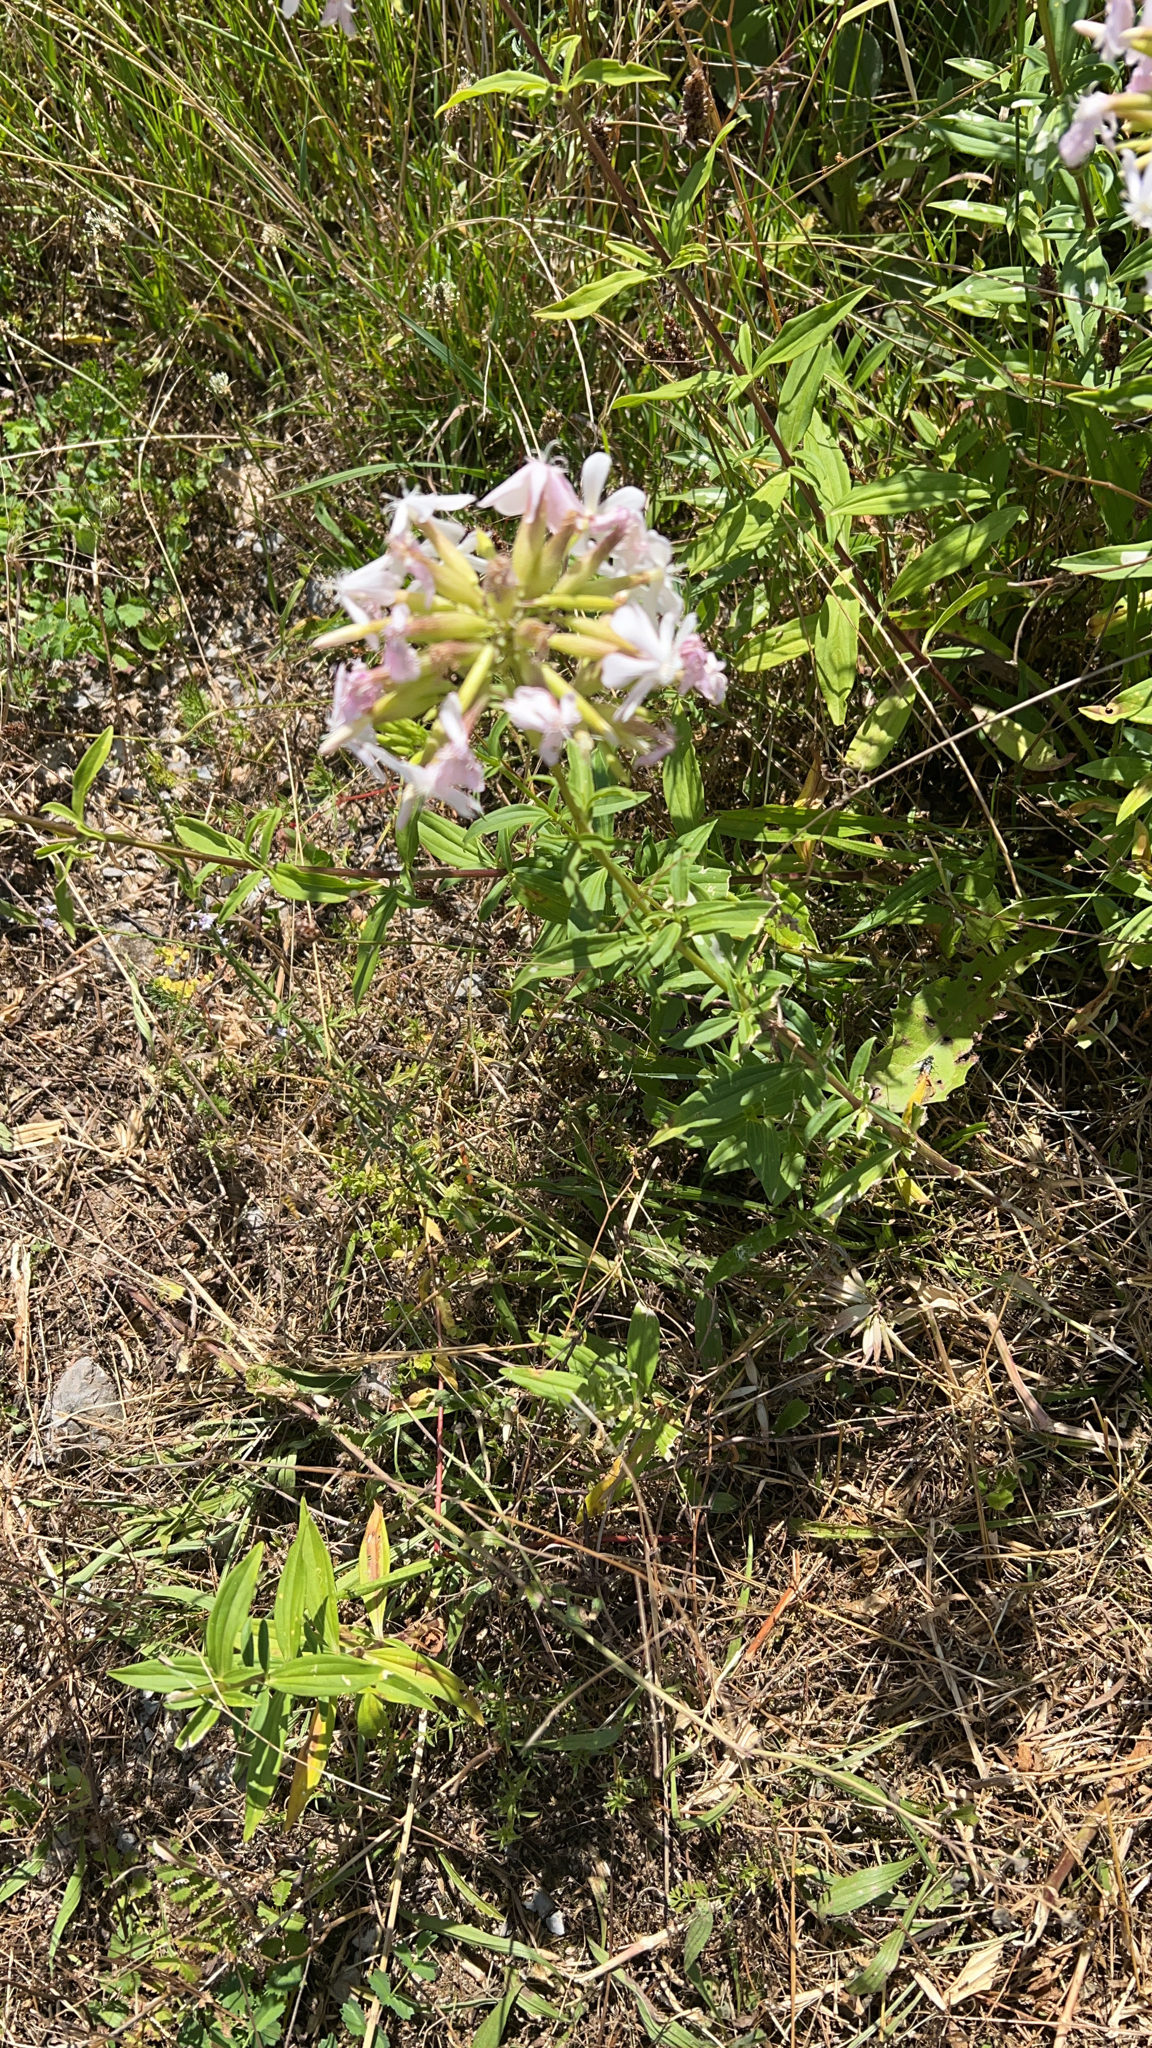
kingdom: Plantae
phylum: Tracheophyta
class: Magnoliopsida
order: Caryophyllales
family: Caryophyllaceae
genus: Saponaria
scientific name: Saponaria officinalis
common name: Soapwort
